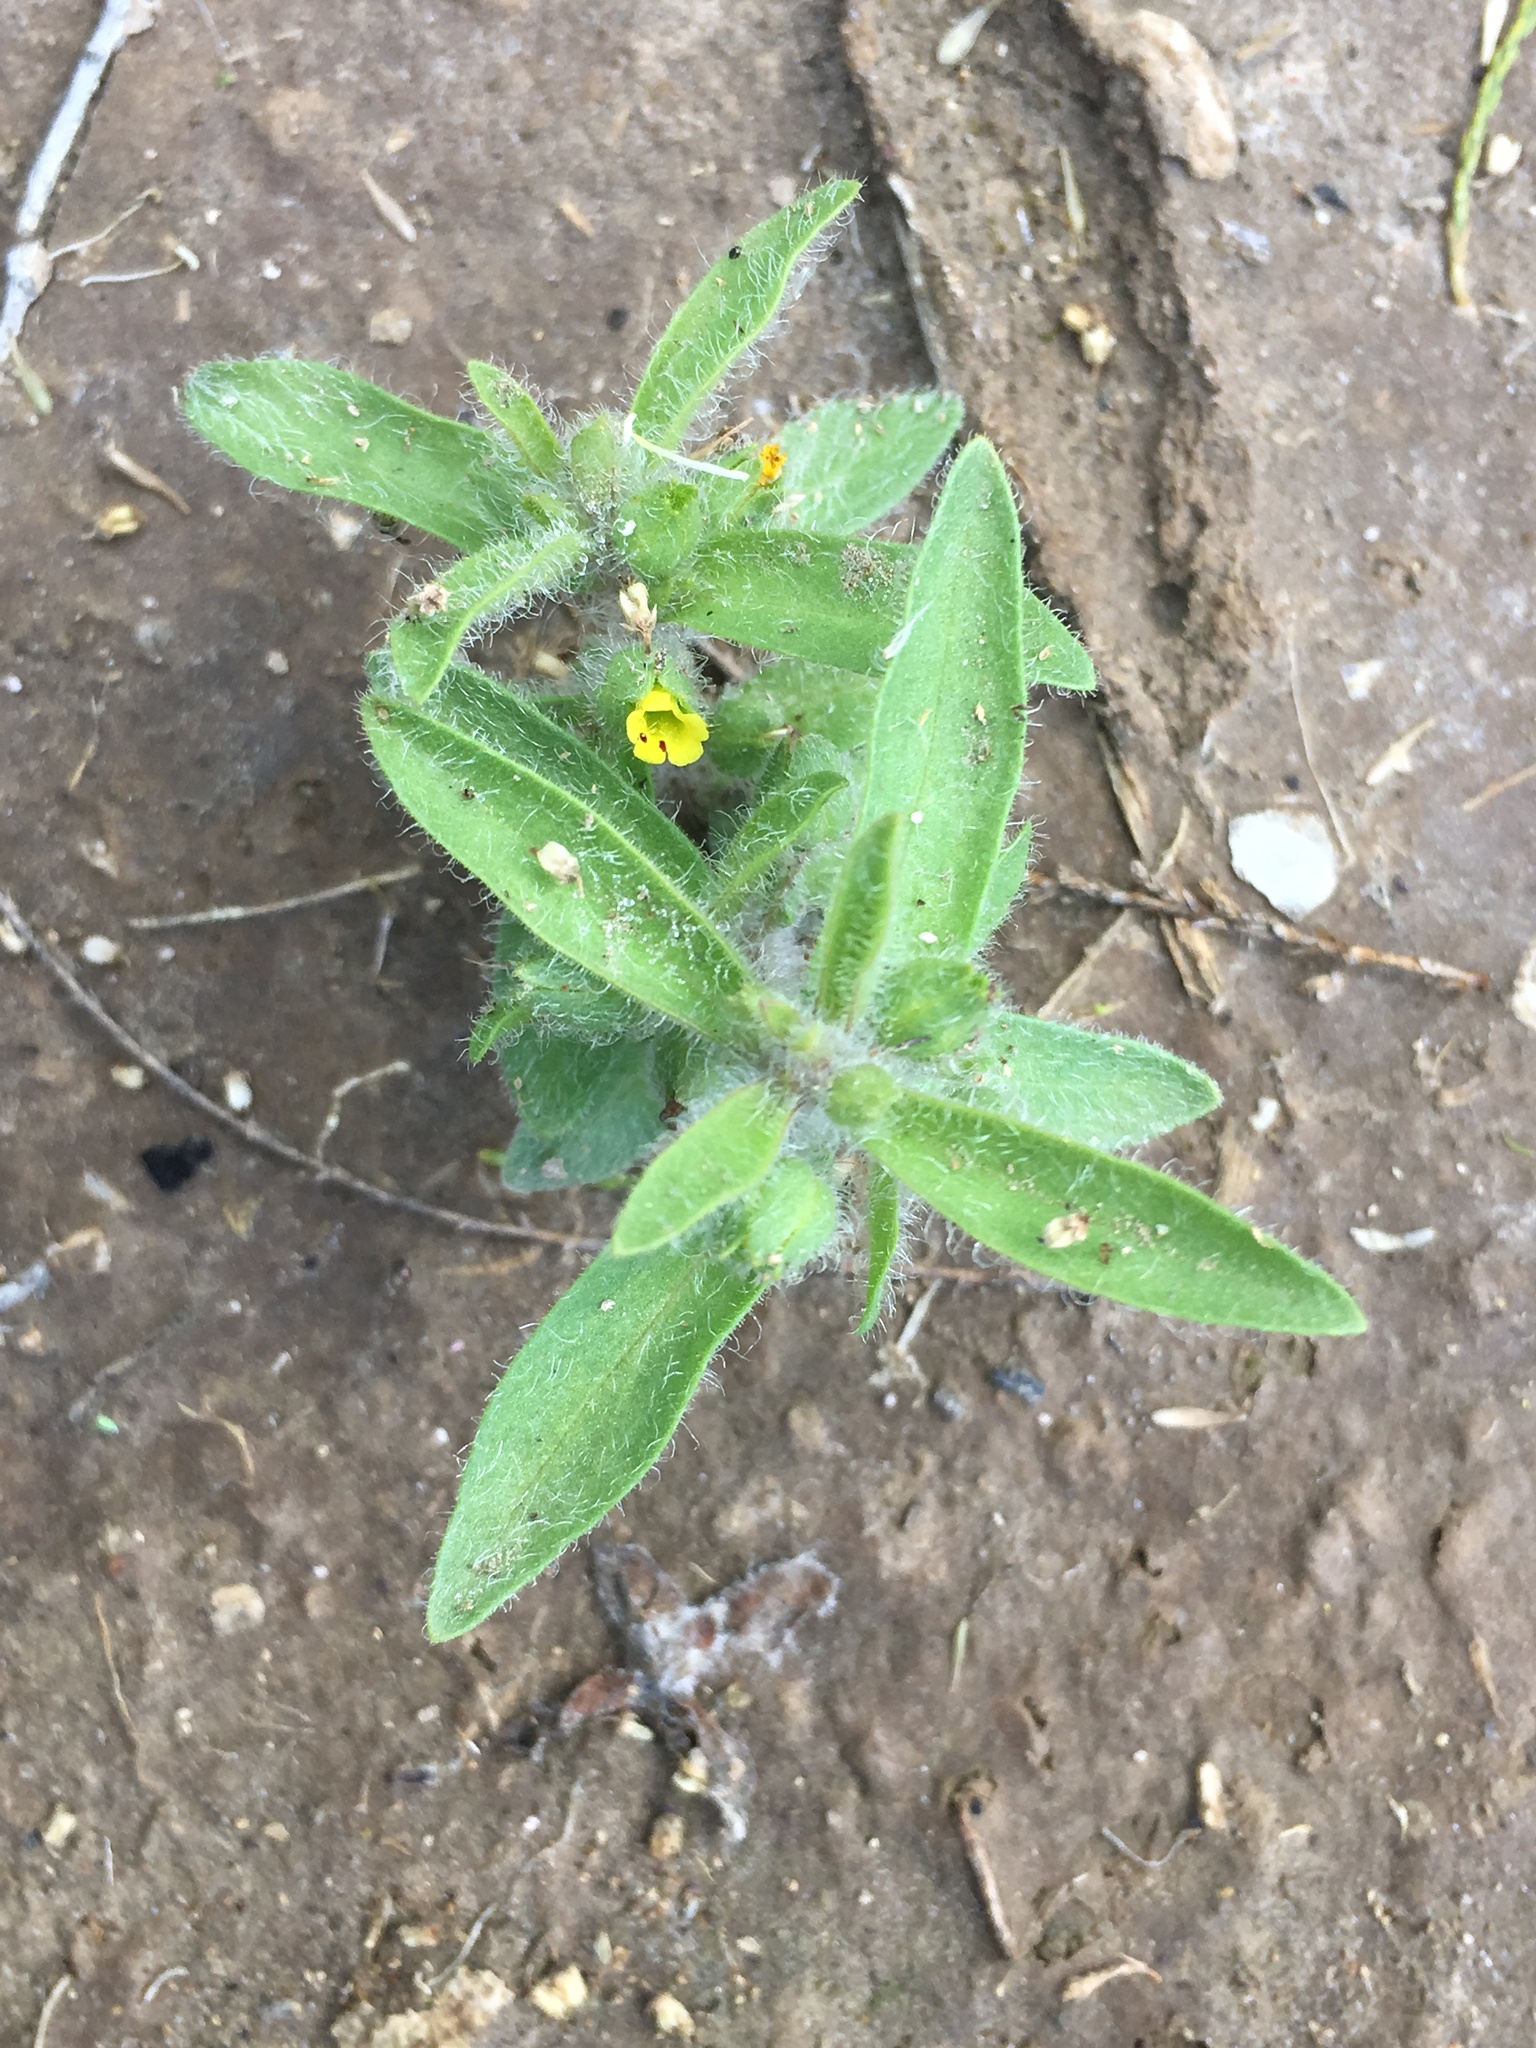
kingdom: Plantae
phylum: Tracheophyta
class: Magnoliopsida
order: Lamiales
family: Phrymaceae
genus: Mimetanthe
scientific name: Mimetanthe pilosa
